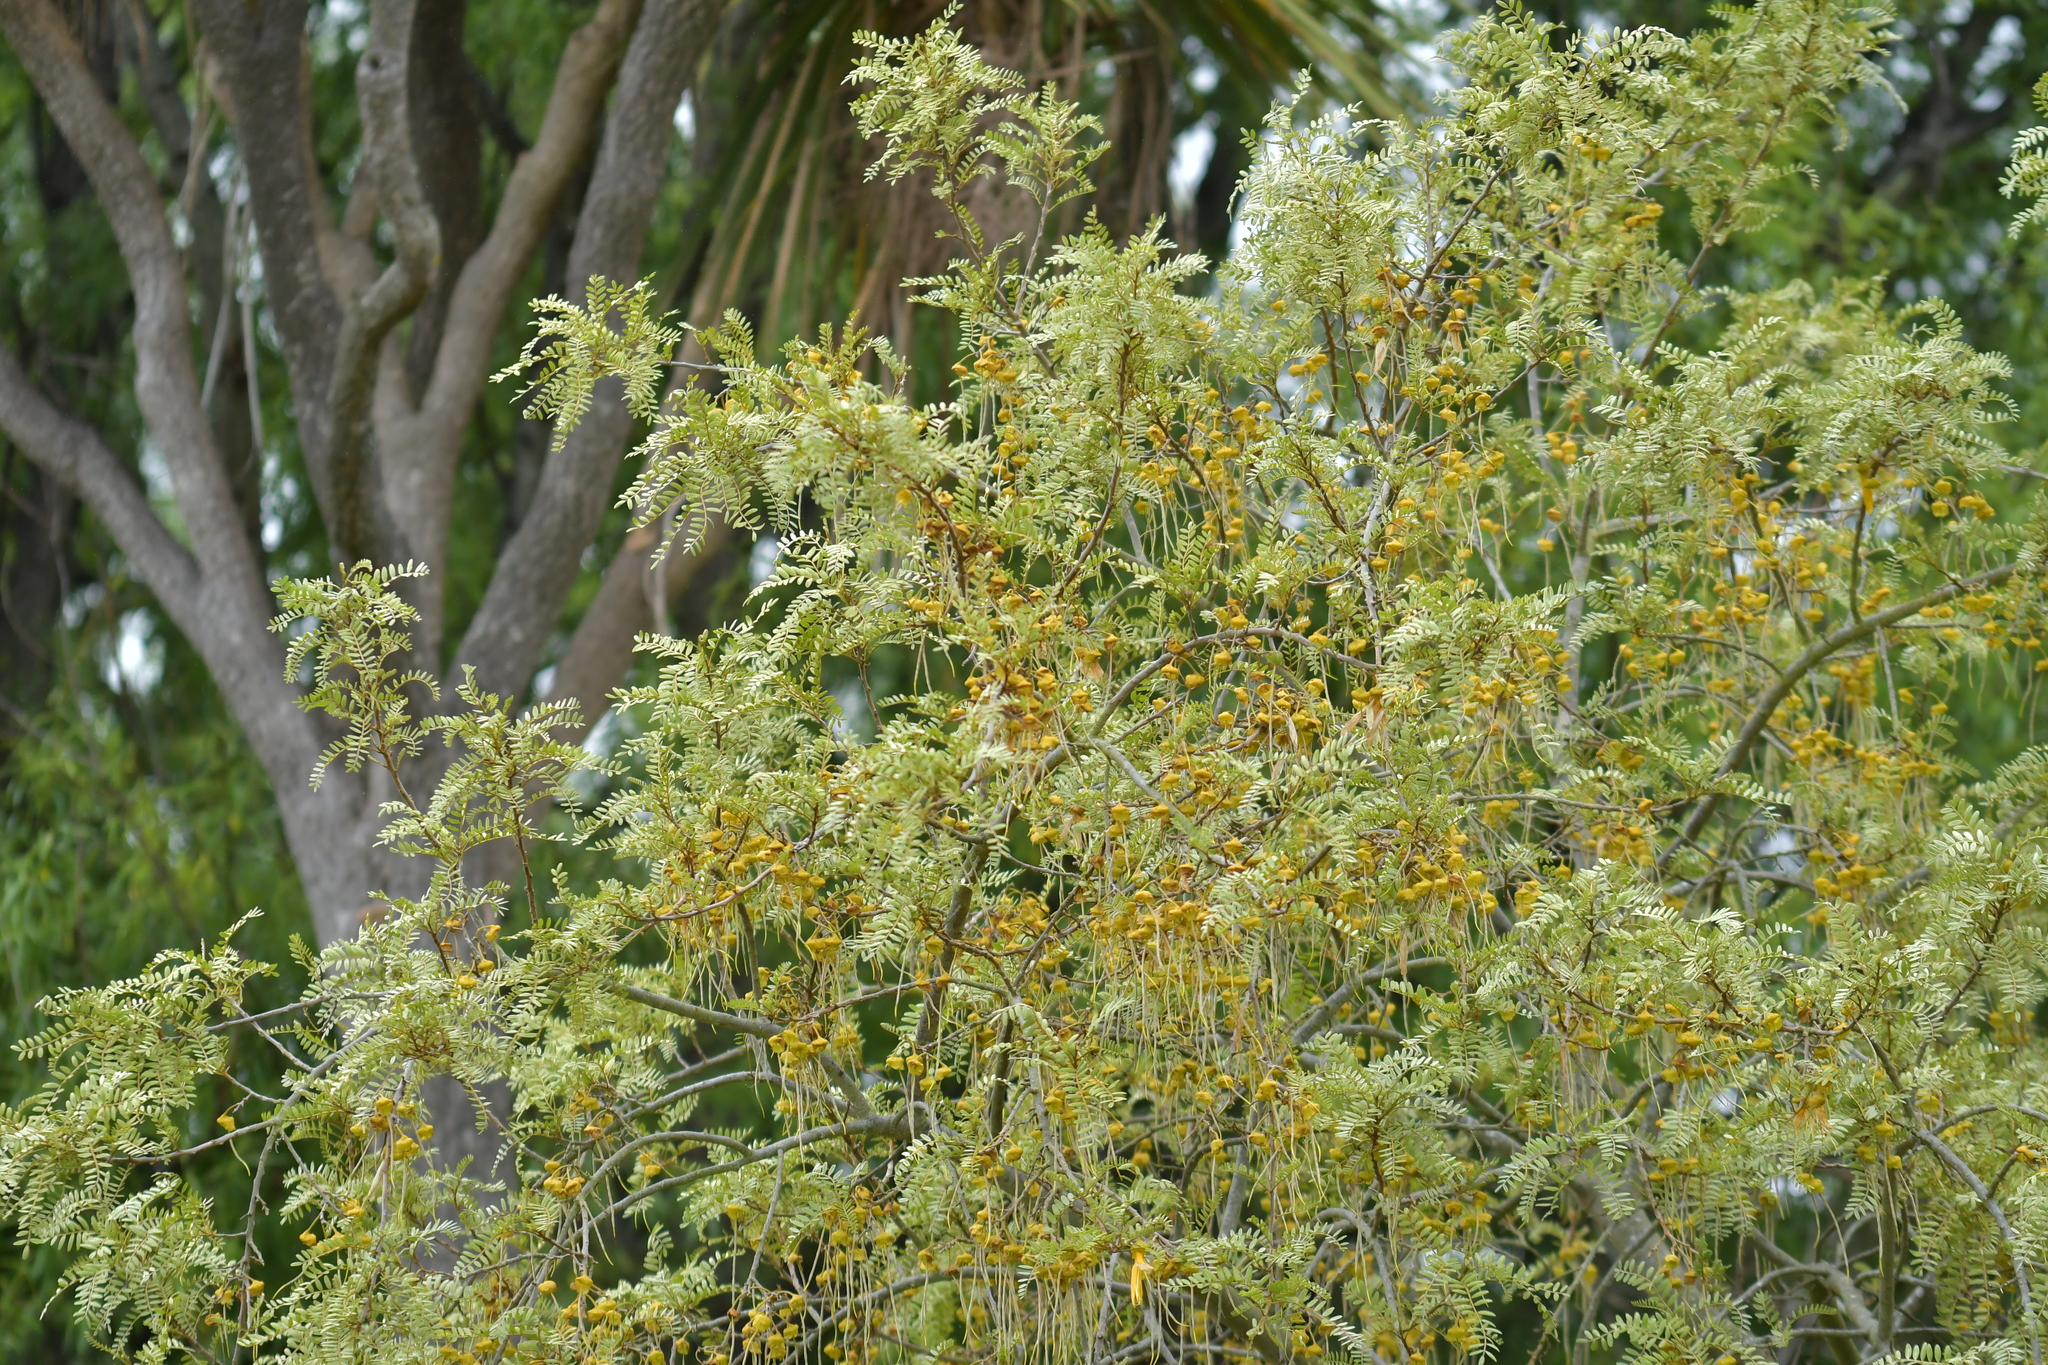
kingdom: Plantae
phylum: Tracheophyta
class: Magnoliopsida
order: Fabales
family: Fabaceae
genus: Sophora
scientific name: Sophora microphylla
